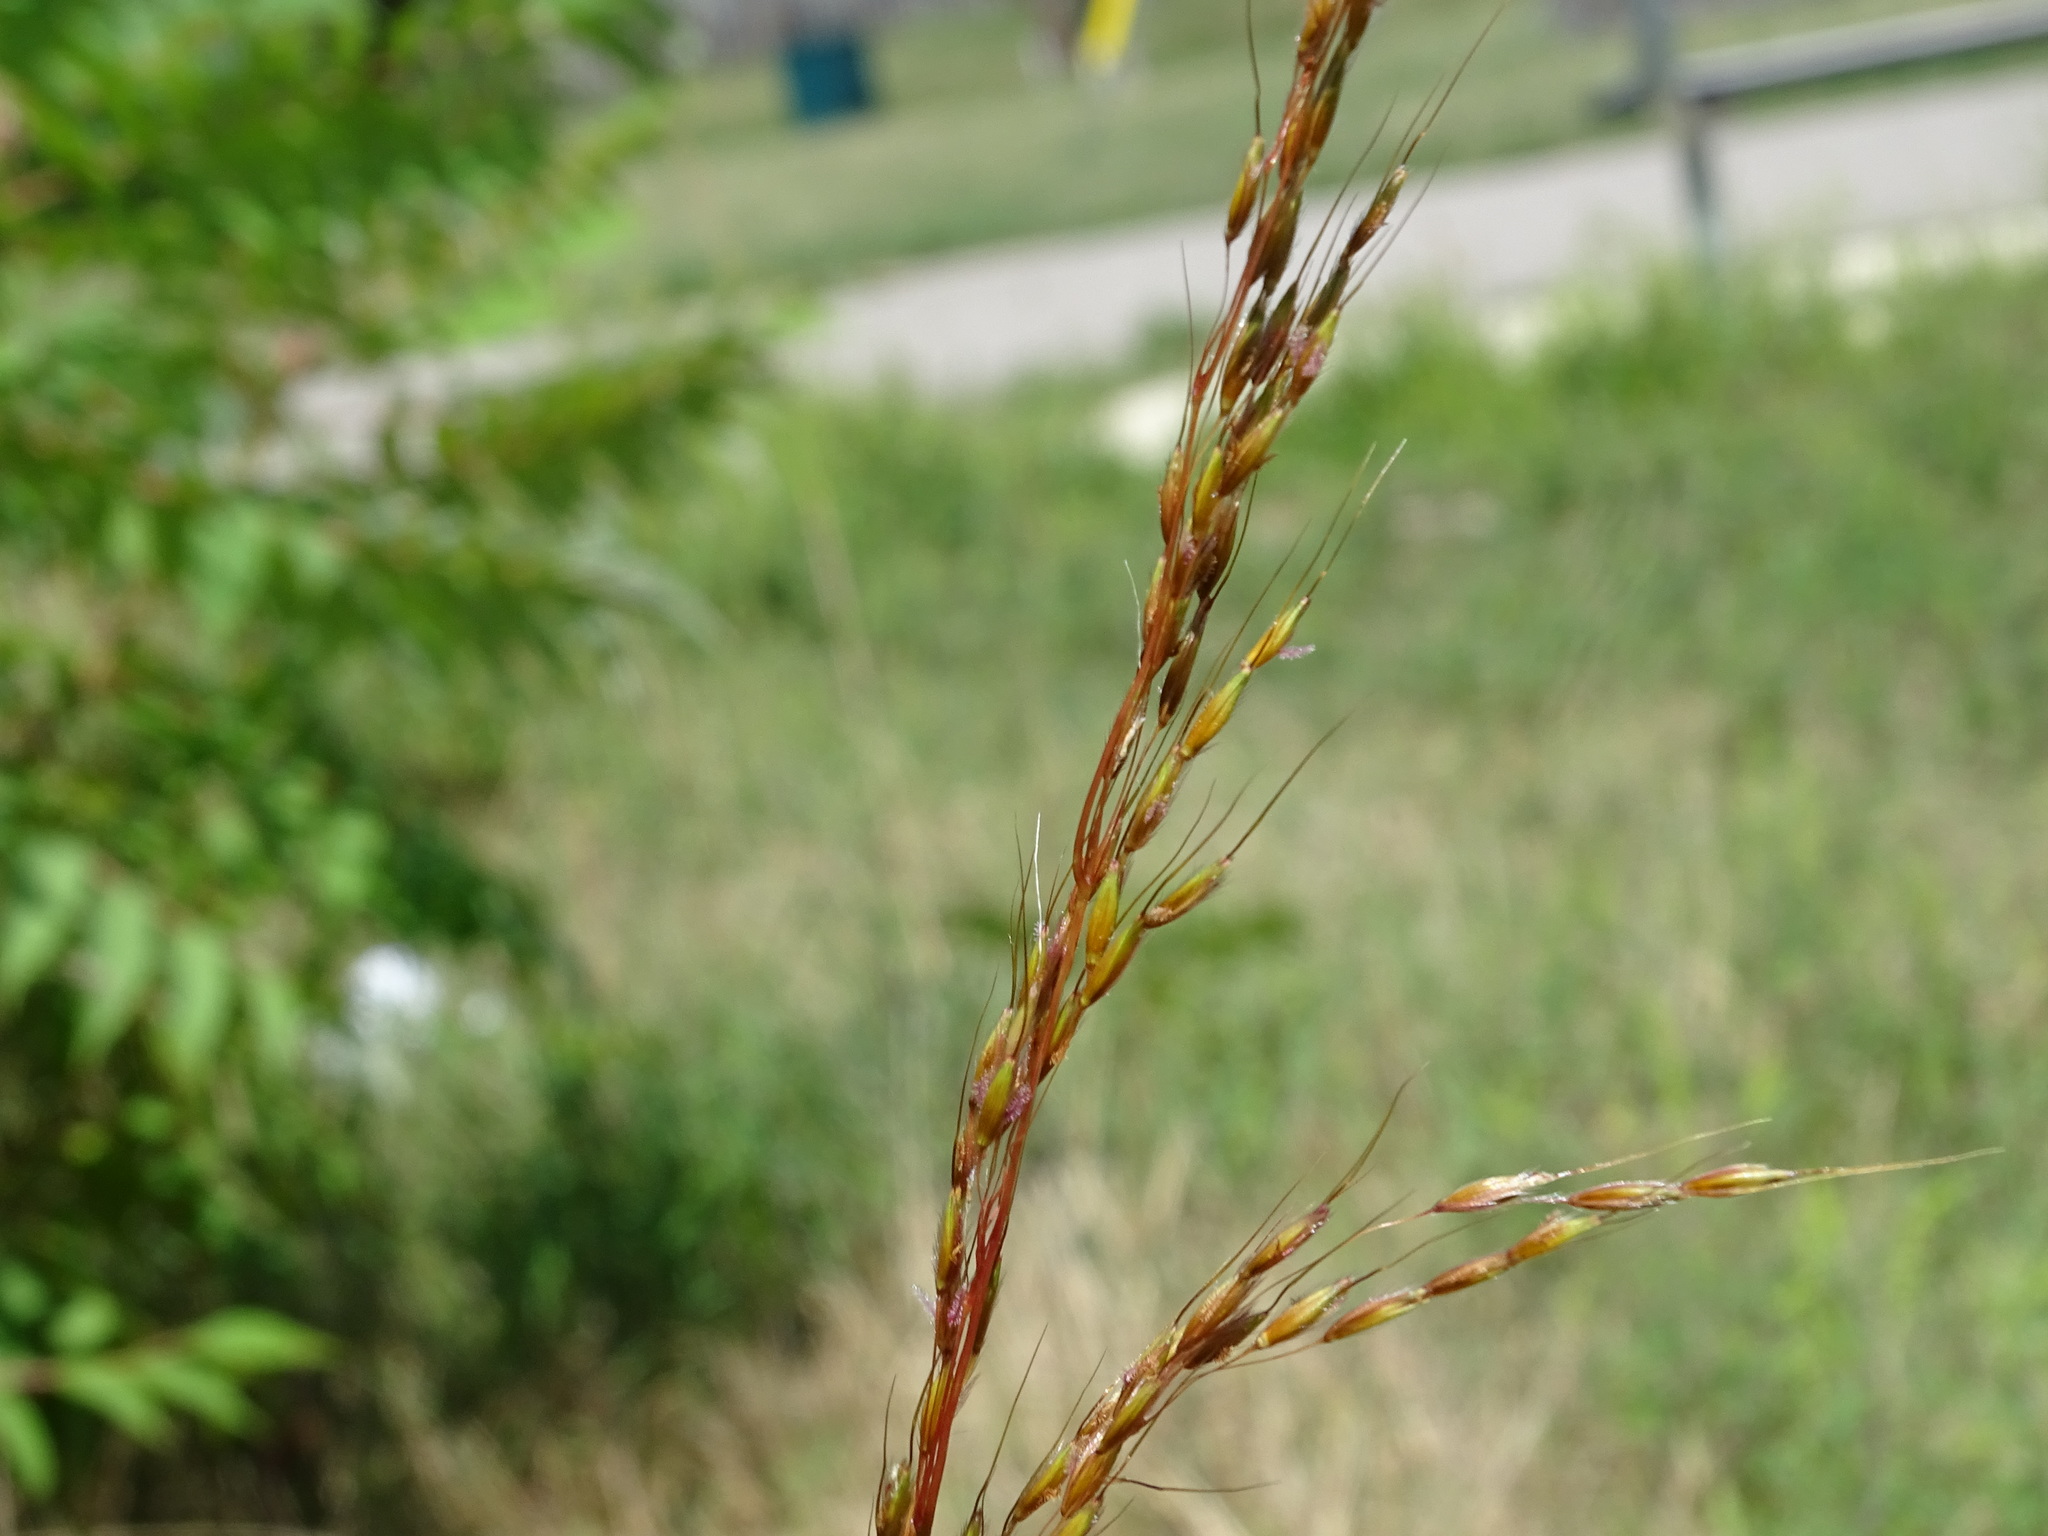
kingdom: Plantae
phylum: Tracheophyta
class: Liliopsida
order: Poales
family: Poaceae
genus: Sorghastrum
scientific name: Sorghastrum nutans
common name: Indian grass
